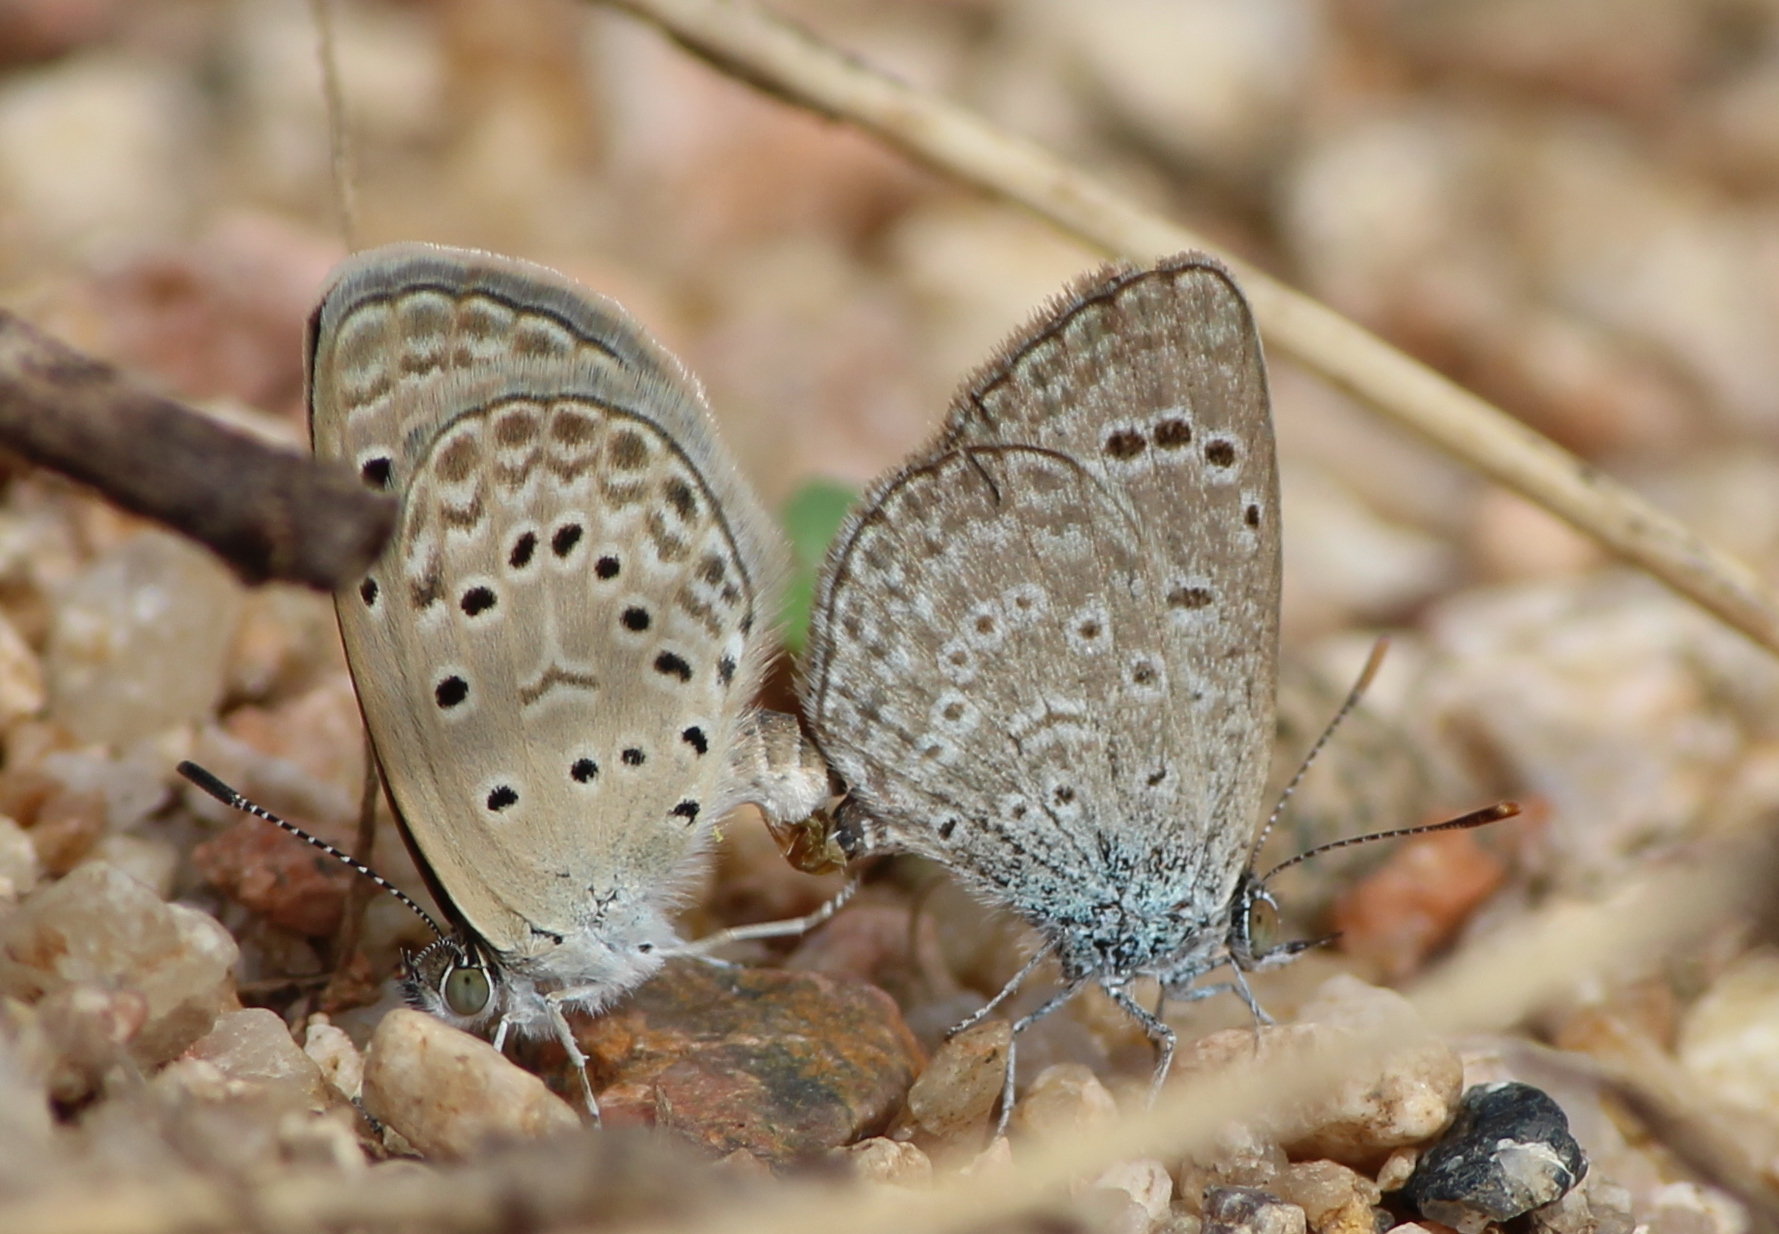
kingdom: Animalia
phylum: Arthropoda
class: Insecta
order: Lepidoptera
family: Lycaenidae
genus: Zizeeria
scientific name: Zizeeria karsandra
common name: Dark grass blue
